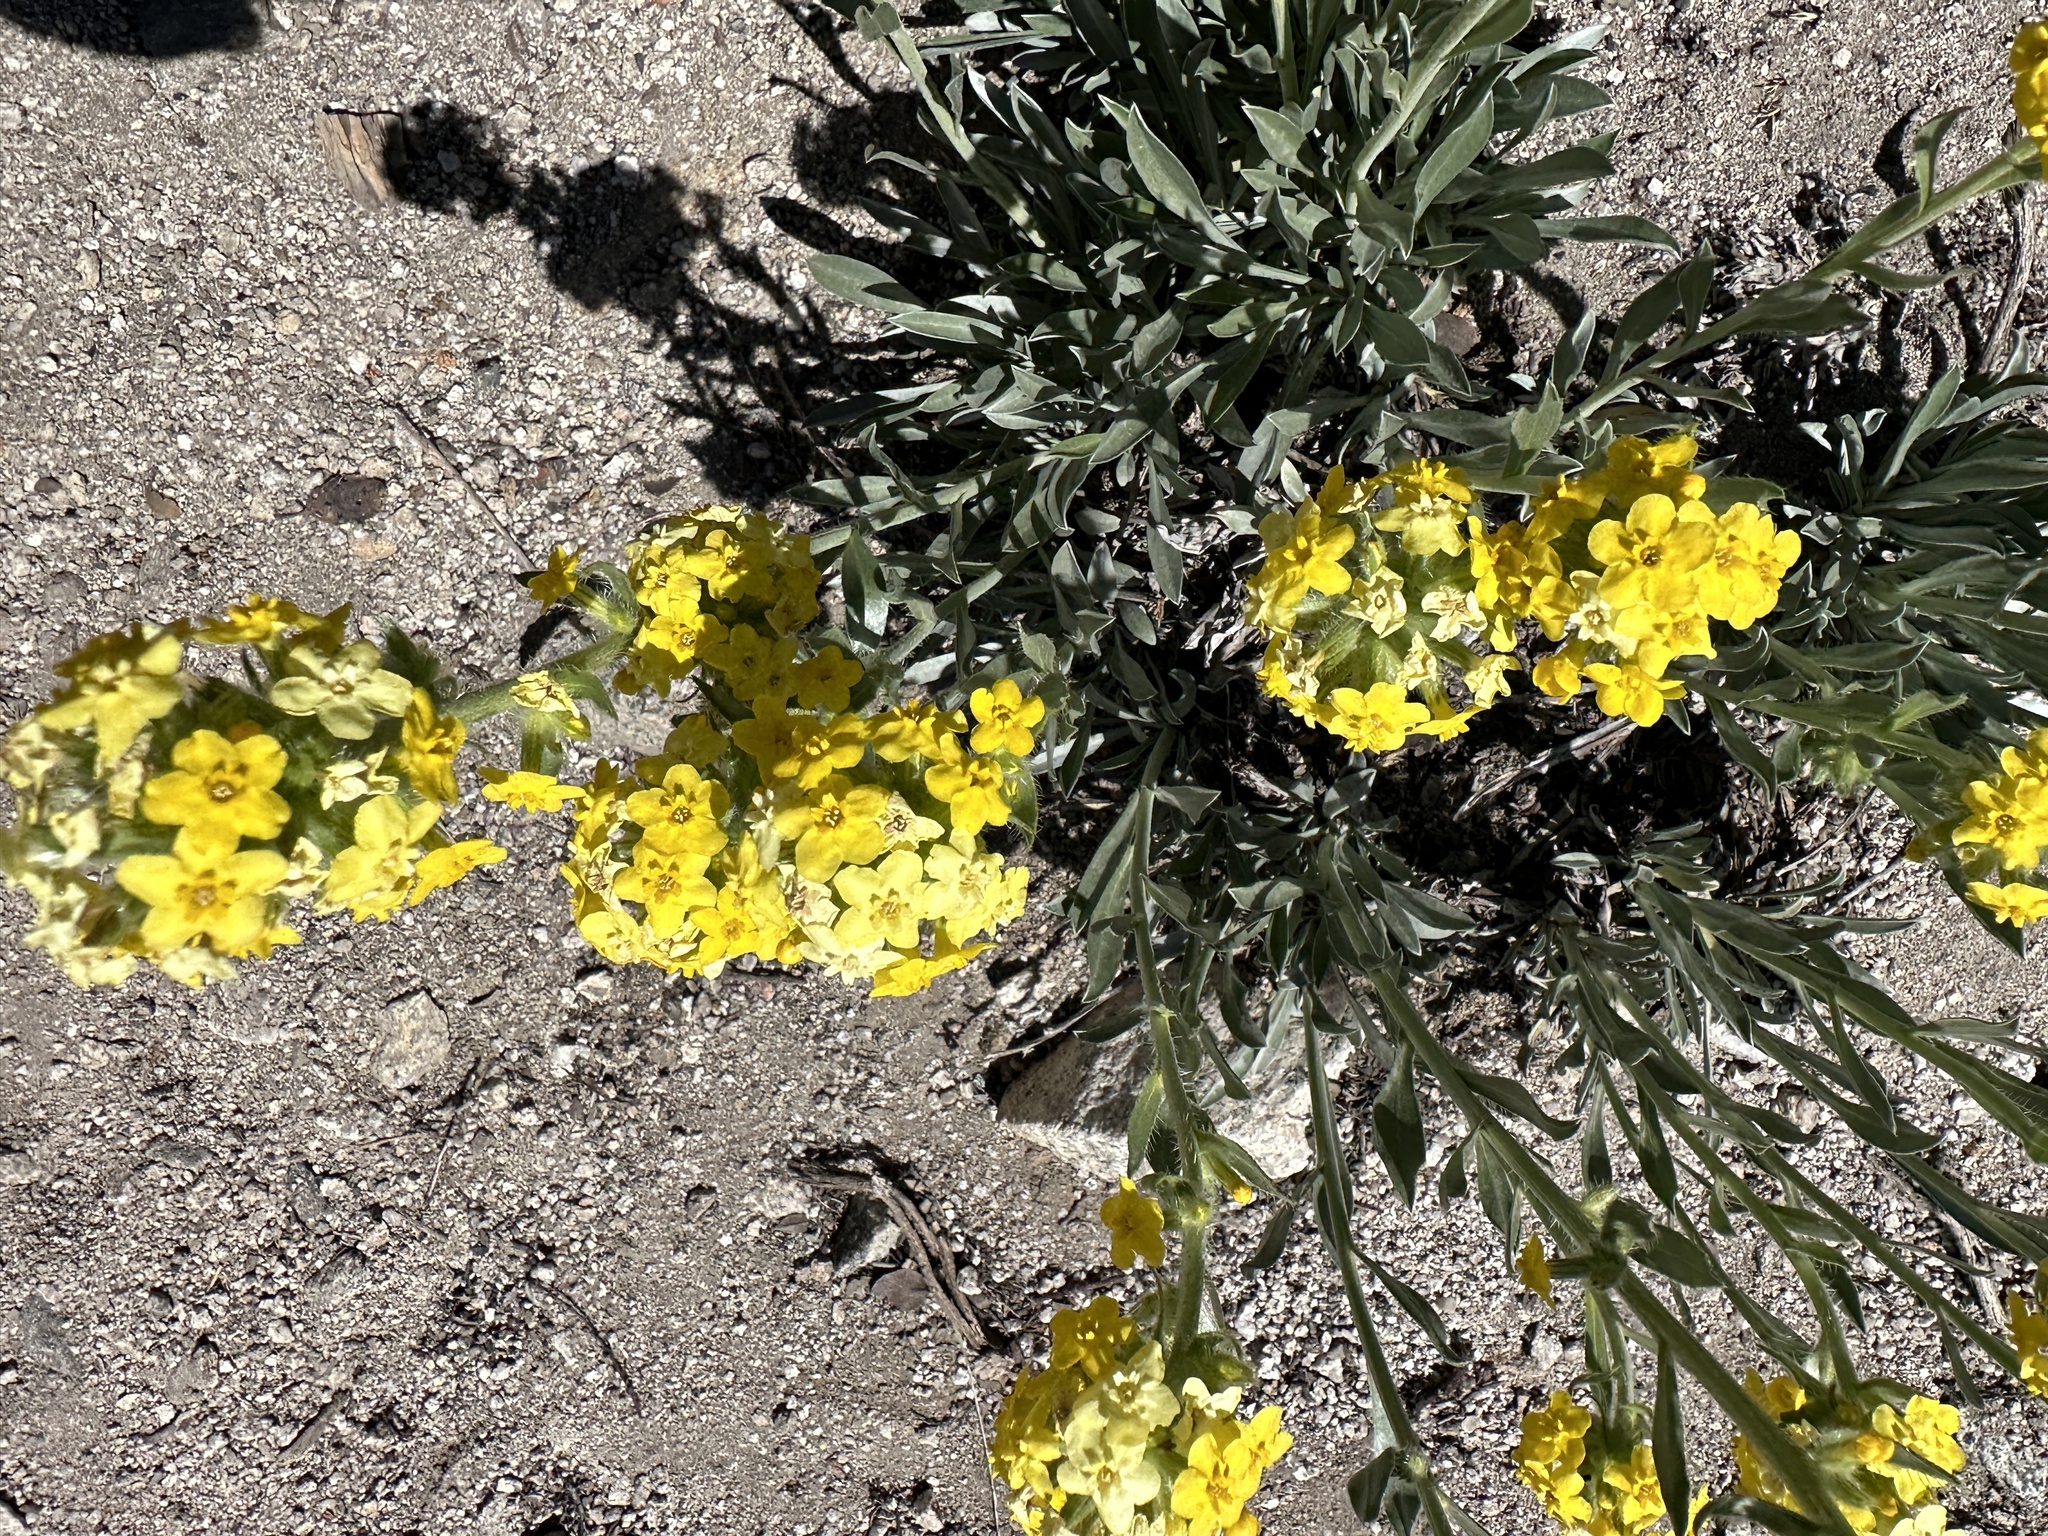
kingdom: Plantae
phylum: Tracheophyta
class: Magnoliopsida
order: Boraginales
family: Boraginaceae
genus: Oreocarya
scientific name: Oreocarya confertiflora
